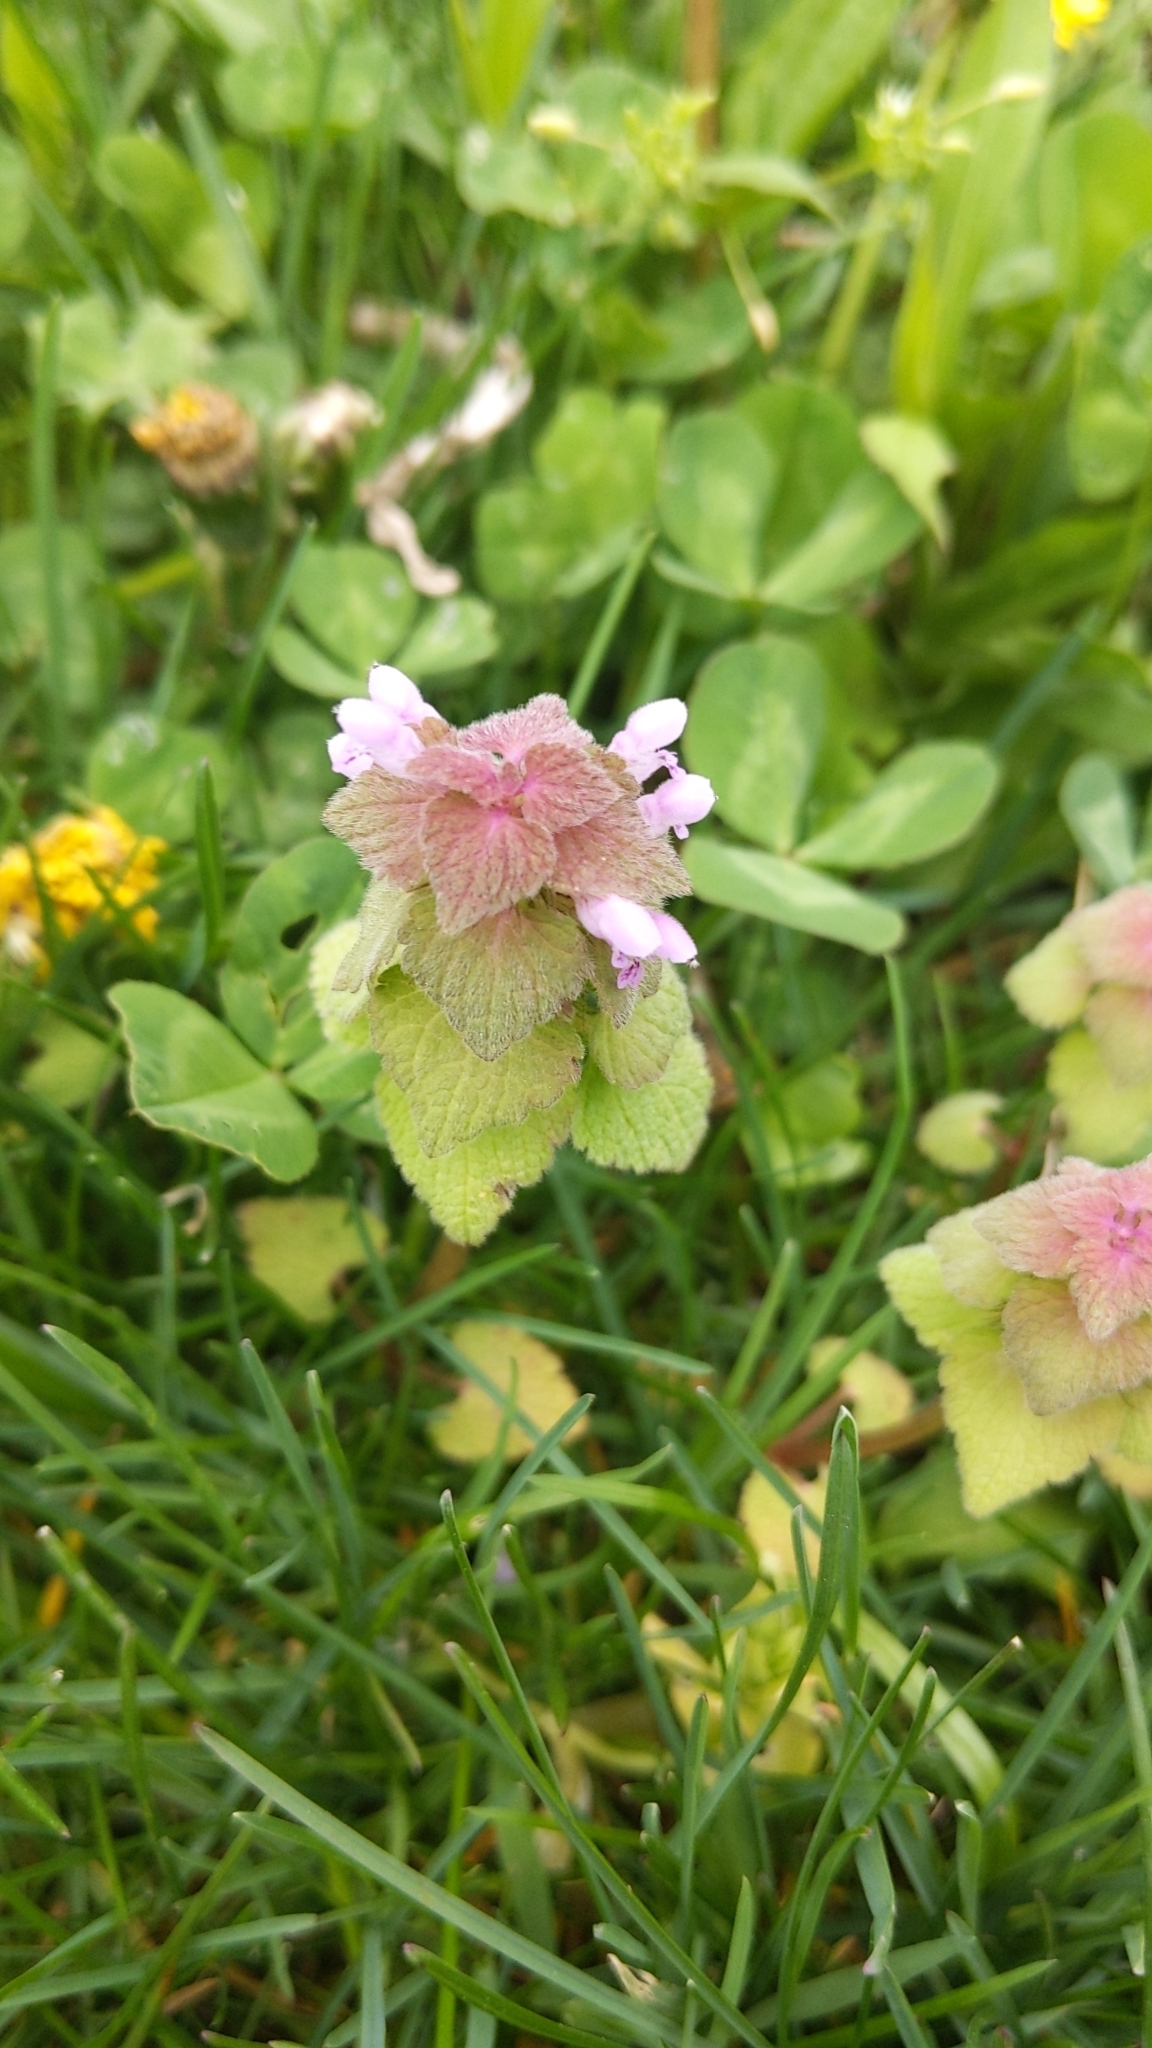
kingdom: Plantae
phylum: Tracheophyta
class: Magnoliopsida
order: Lamiales
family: Lamiaceae
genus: Lamium
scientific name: Lamium purpureum
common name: Red dead-nettle
